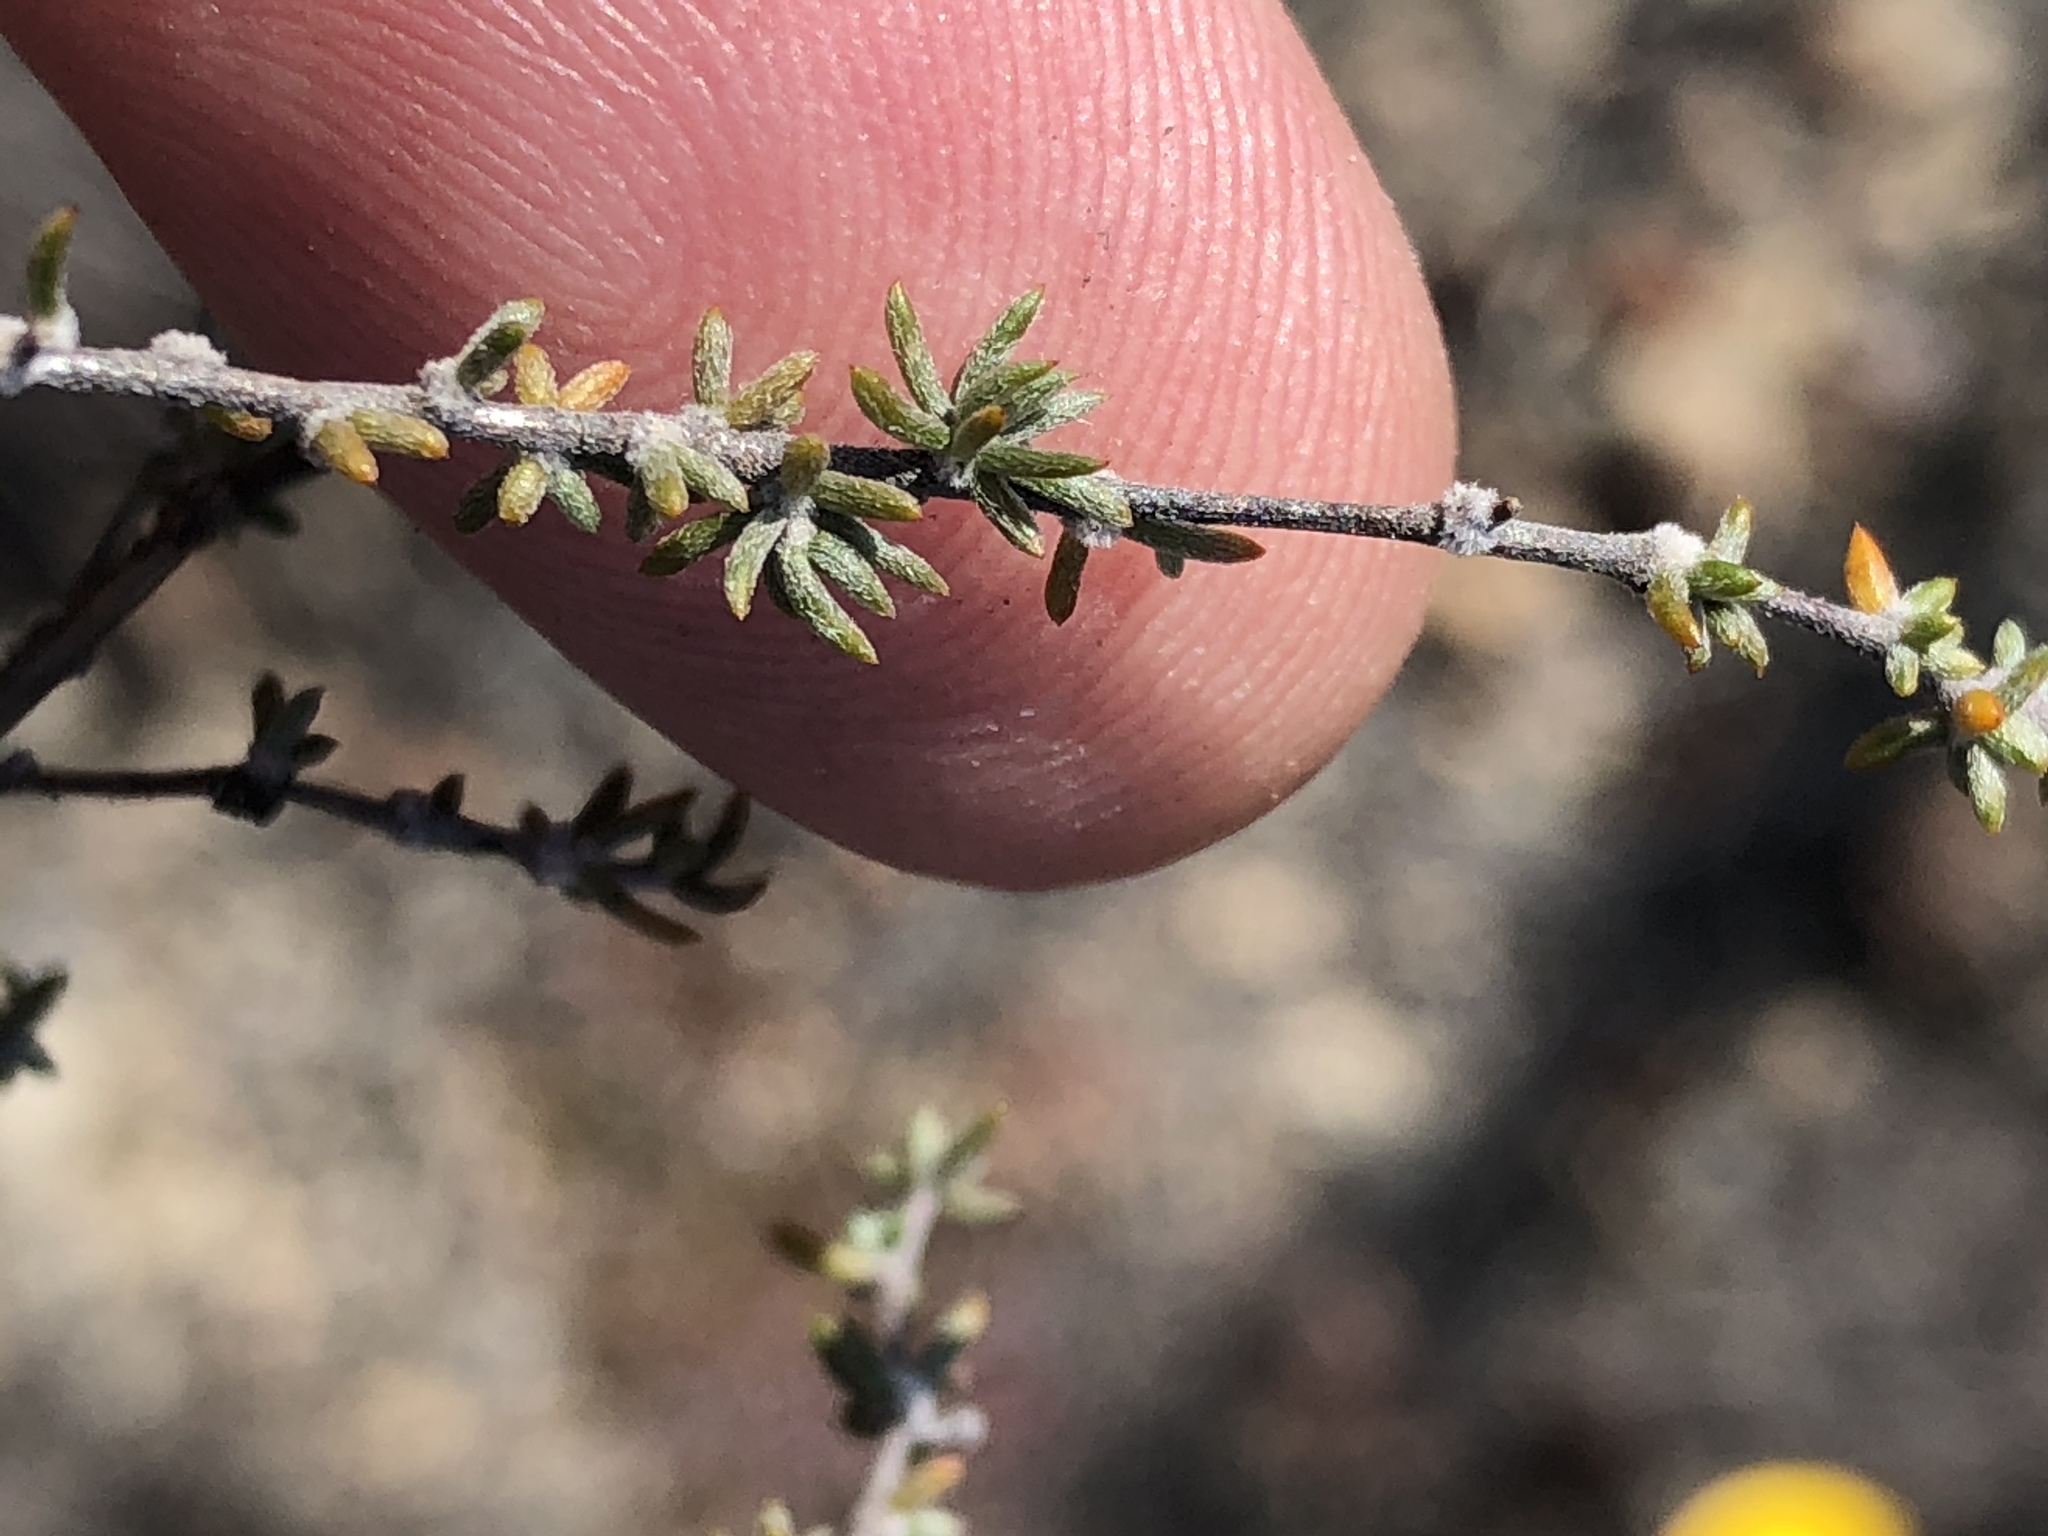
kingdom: Plantae
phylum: Tracheophyta
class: Magnoliopsida
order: Fabales
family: Fabaceae
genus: Aspalathus
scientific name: Aspalathus rubens
